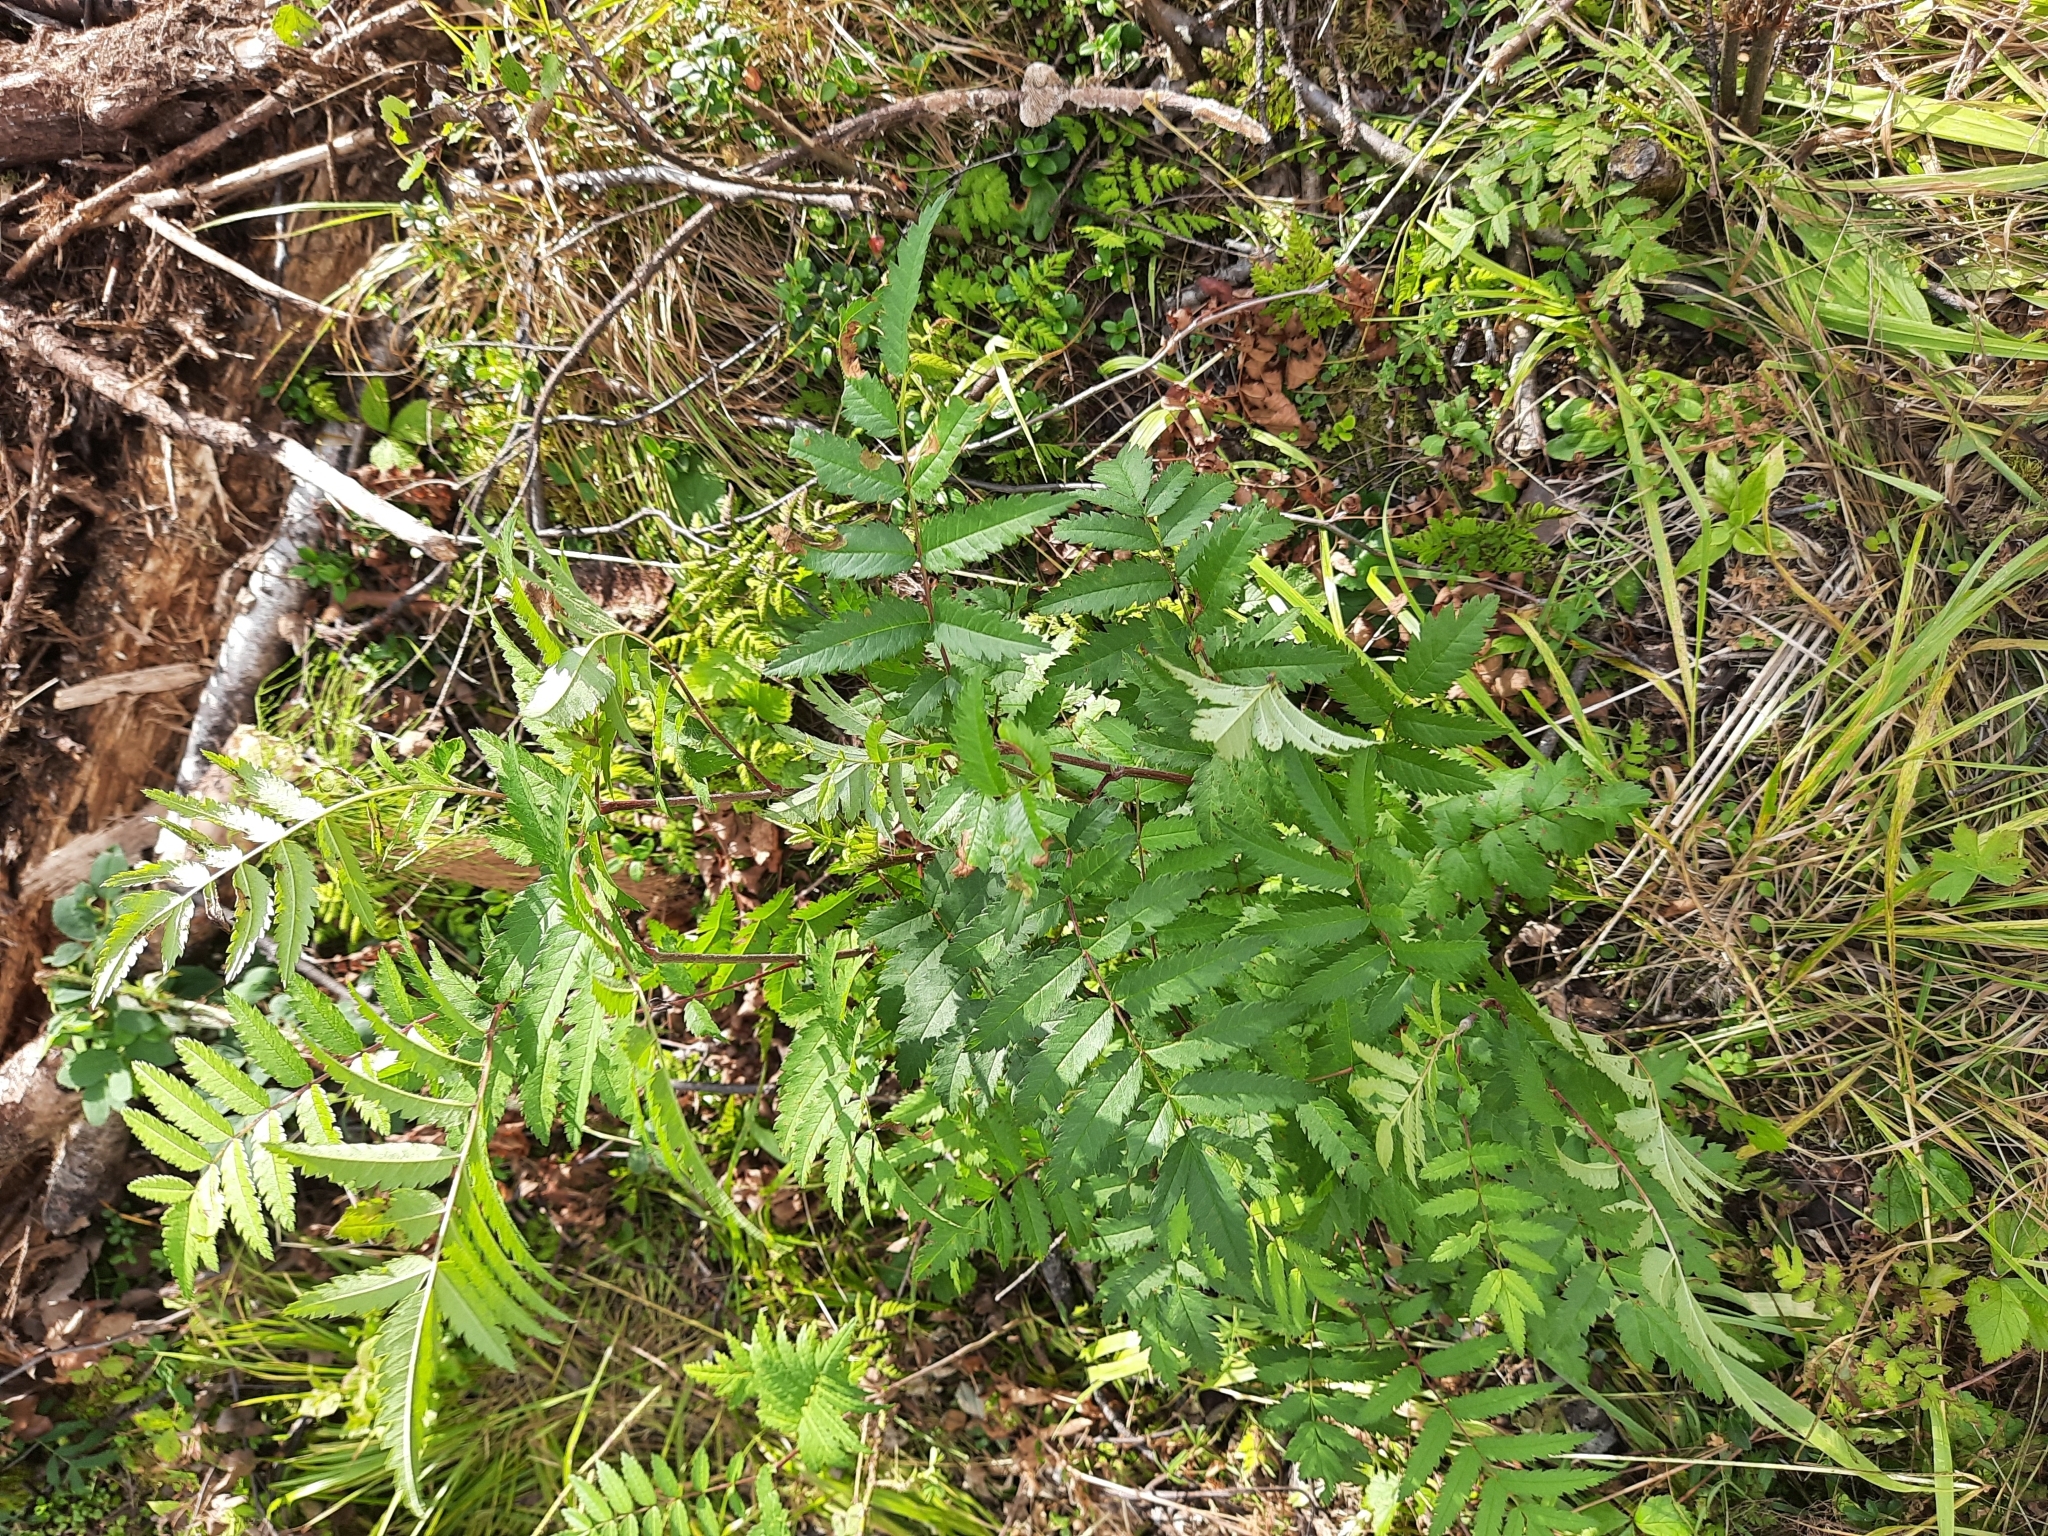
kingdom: Plantae
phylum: Tracheophyta
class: Magnoliopsida
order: Rosales
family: Rosaceae
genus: Sorbus
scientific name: Sorbus aucuparia
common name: Rowan
